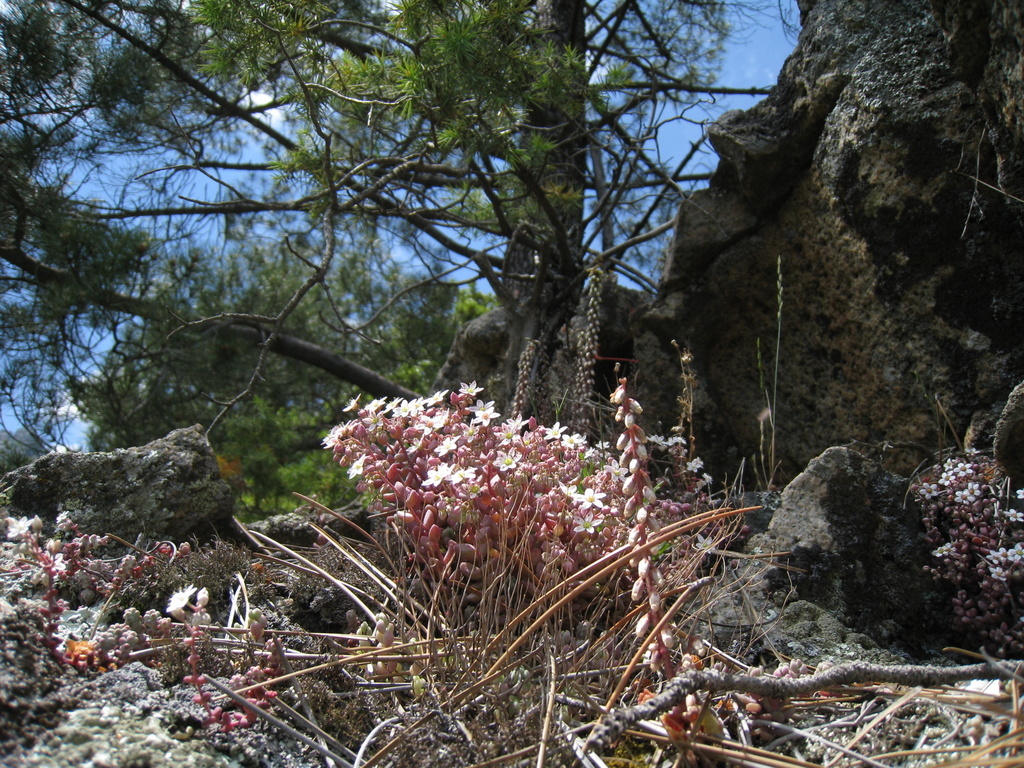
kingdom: Plantae
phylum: Tracheophyta
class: Magnoliopsida
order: Saxifragales
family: Crassulaceae
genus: Sedum
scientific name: Sedum brevifolium
